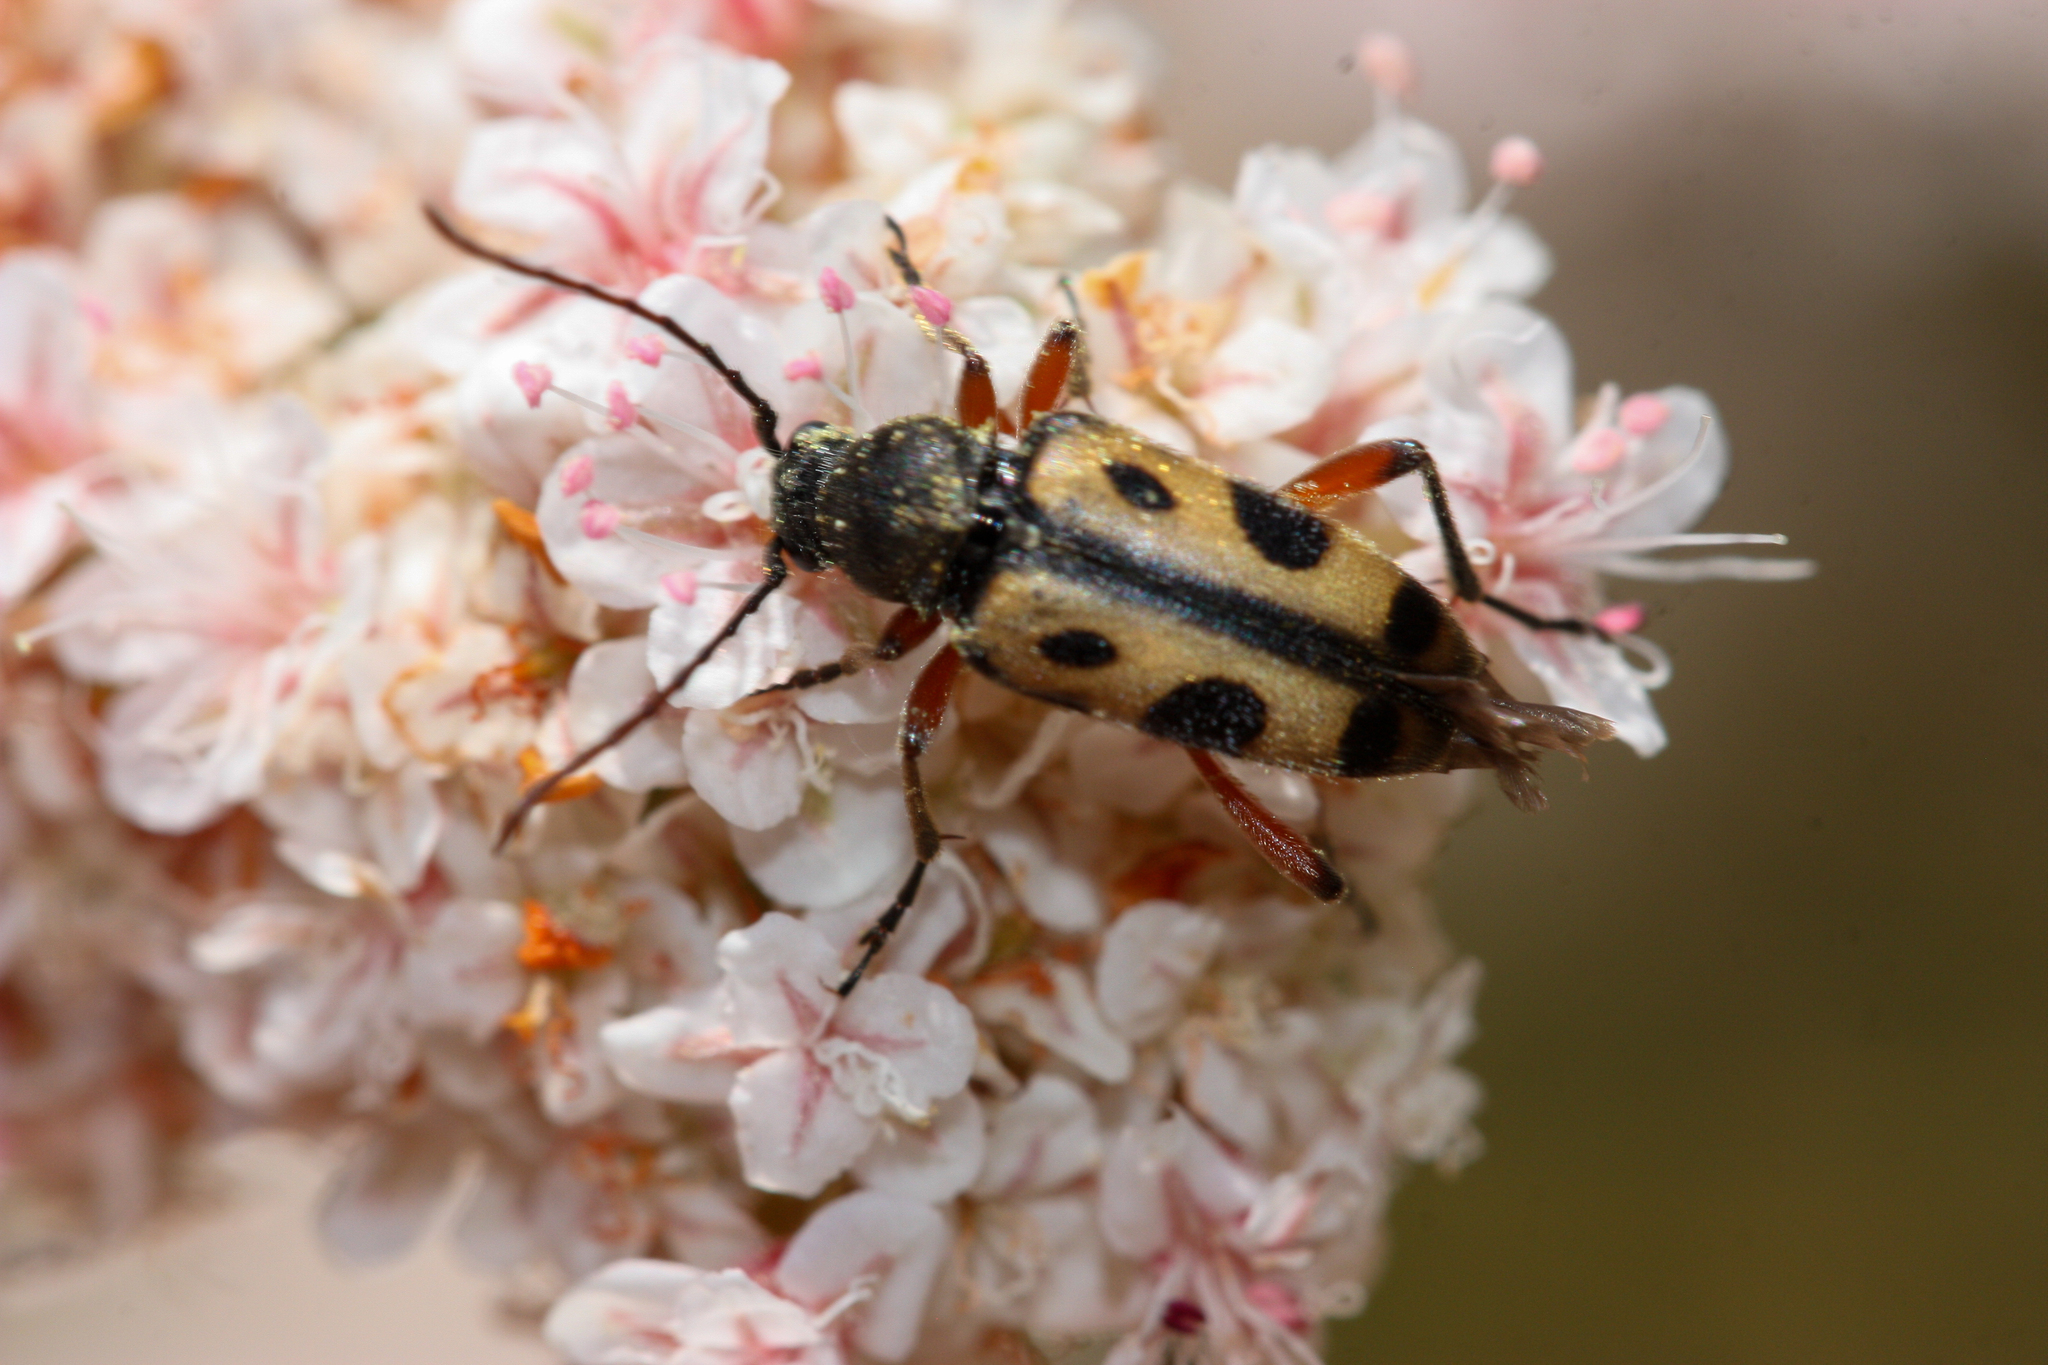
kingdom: Animalia
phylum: Arthropoda
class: Insecta
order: Coleoptera
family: Cerambycidae
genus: Judolia
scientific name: Judolia sexspilota
